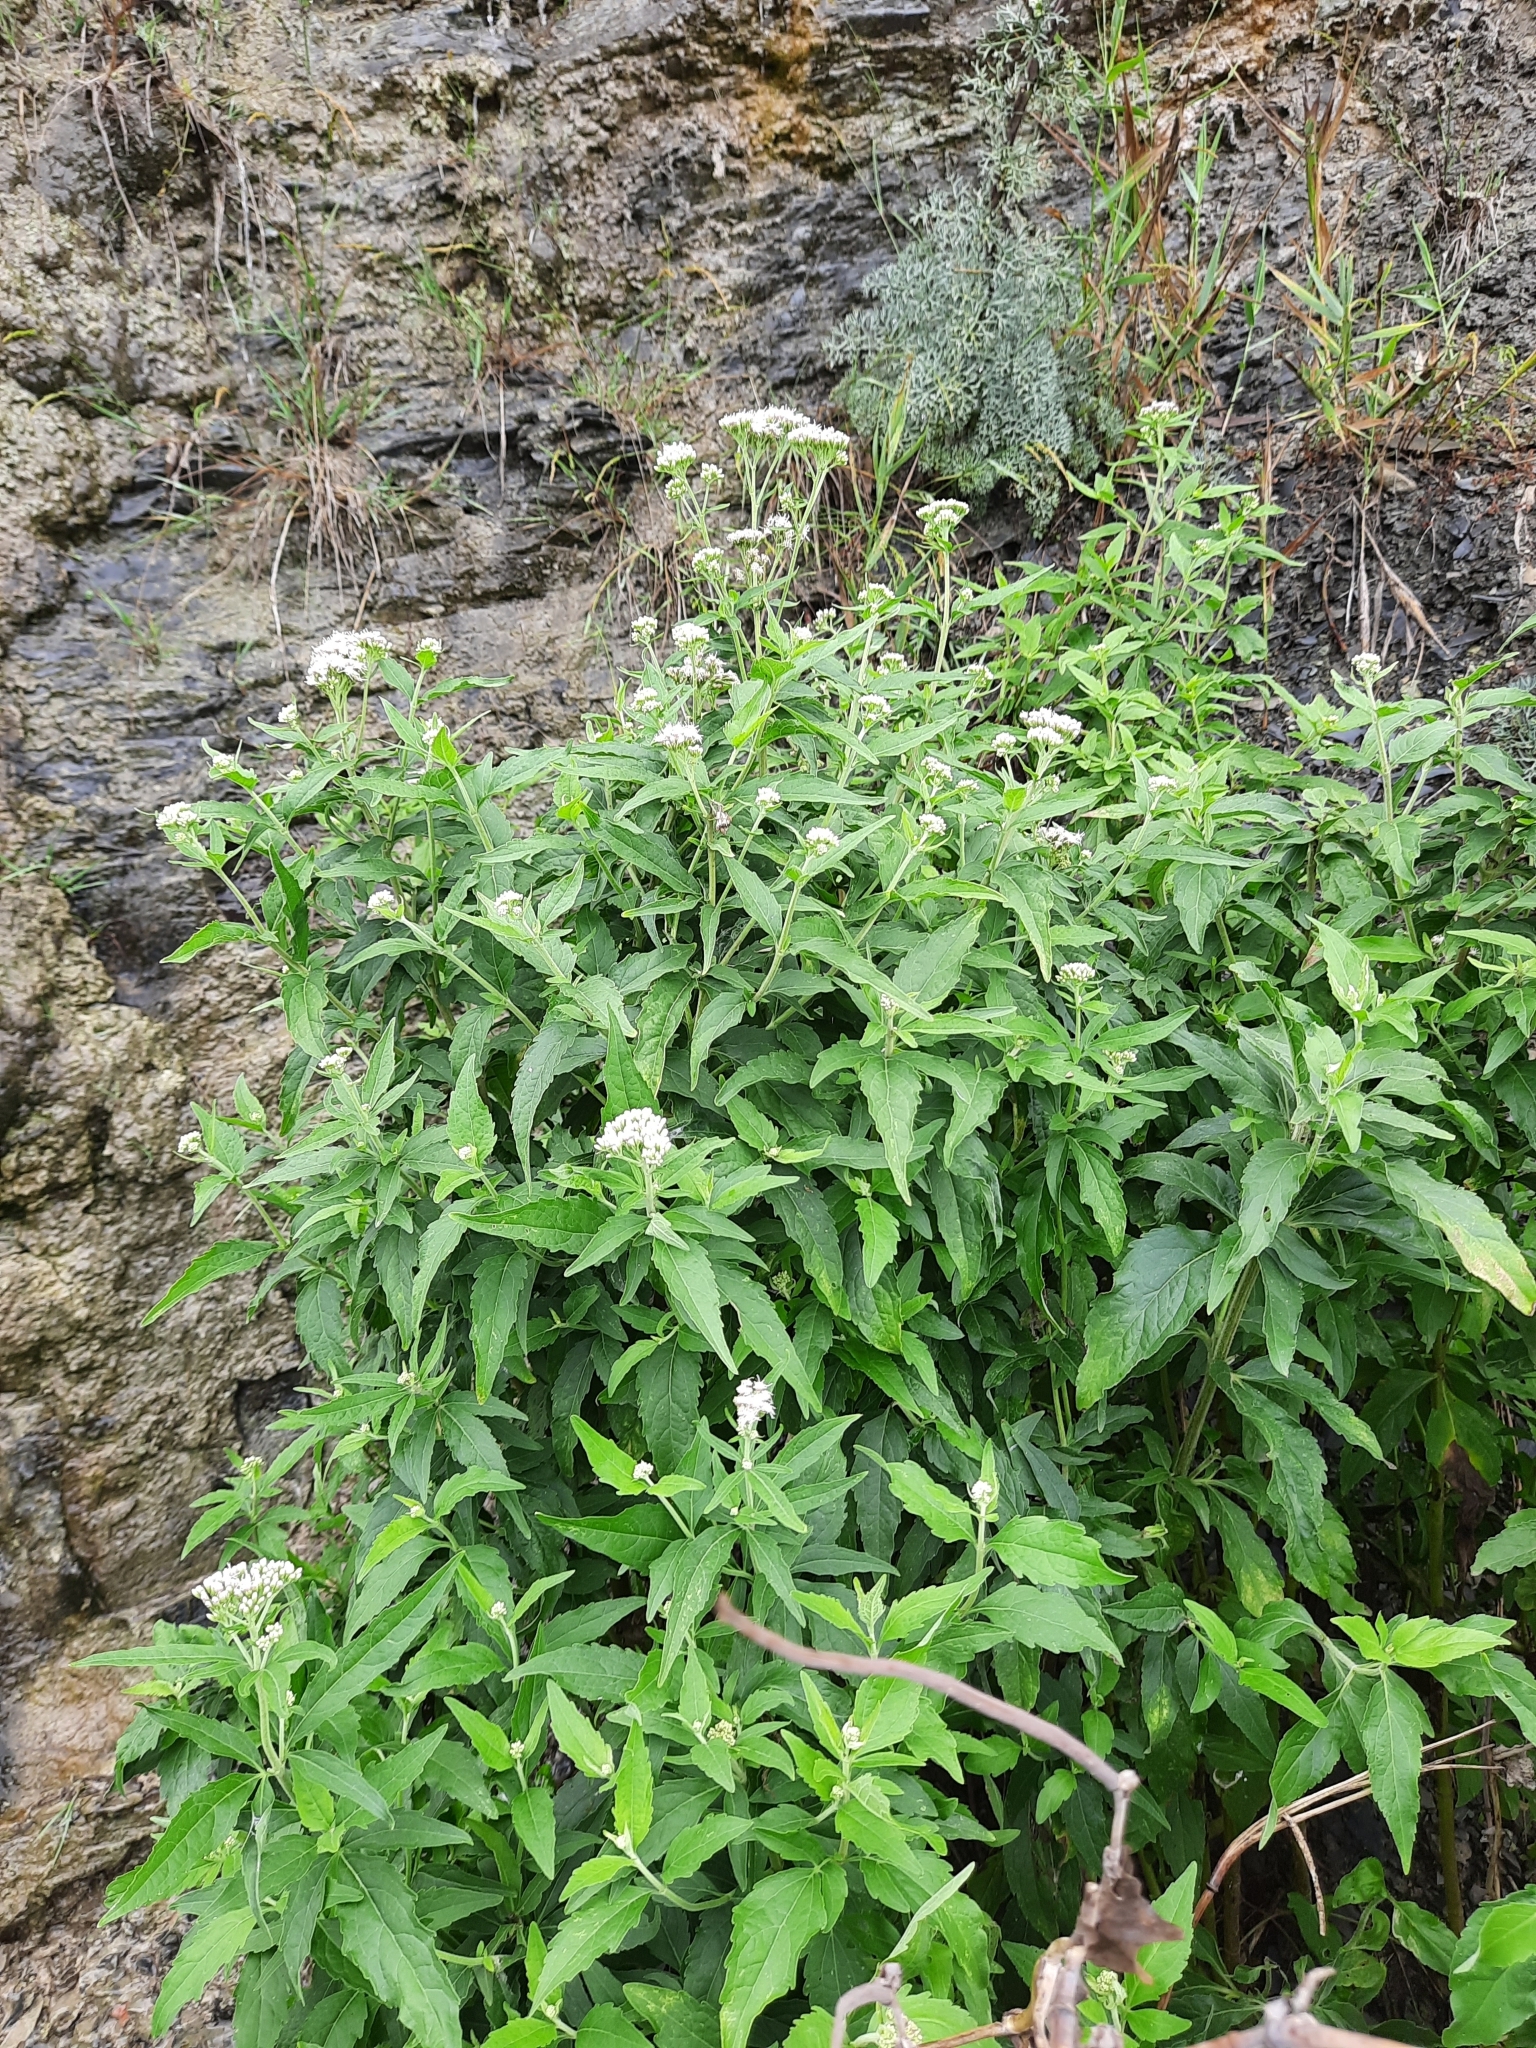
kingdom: Plantae
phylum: Tracheophyta
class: Magnoliopsida
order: Asterales
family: Asteraceae
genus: Eupatorium
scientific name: Eupatorium cannabinum
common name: Hemp-agrimony
